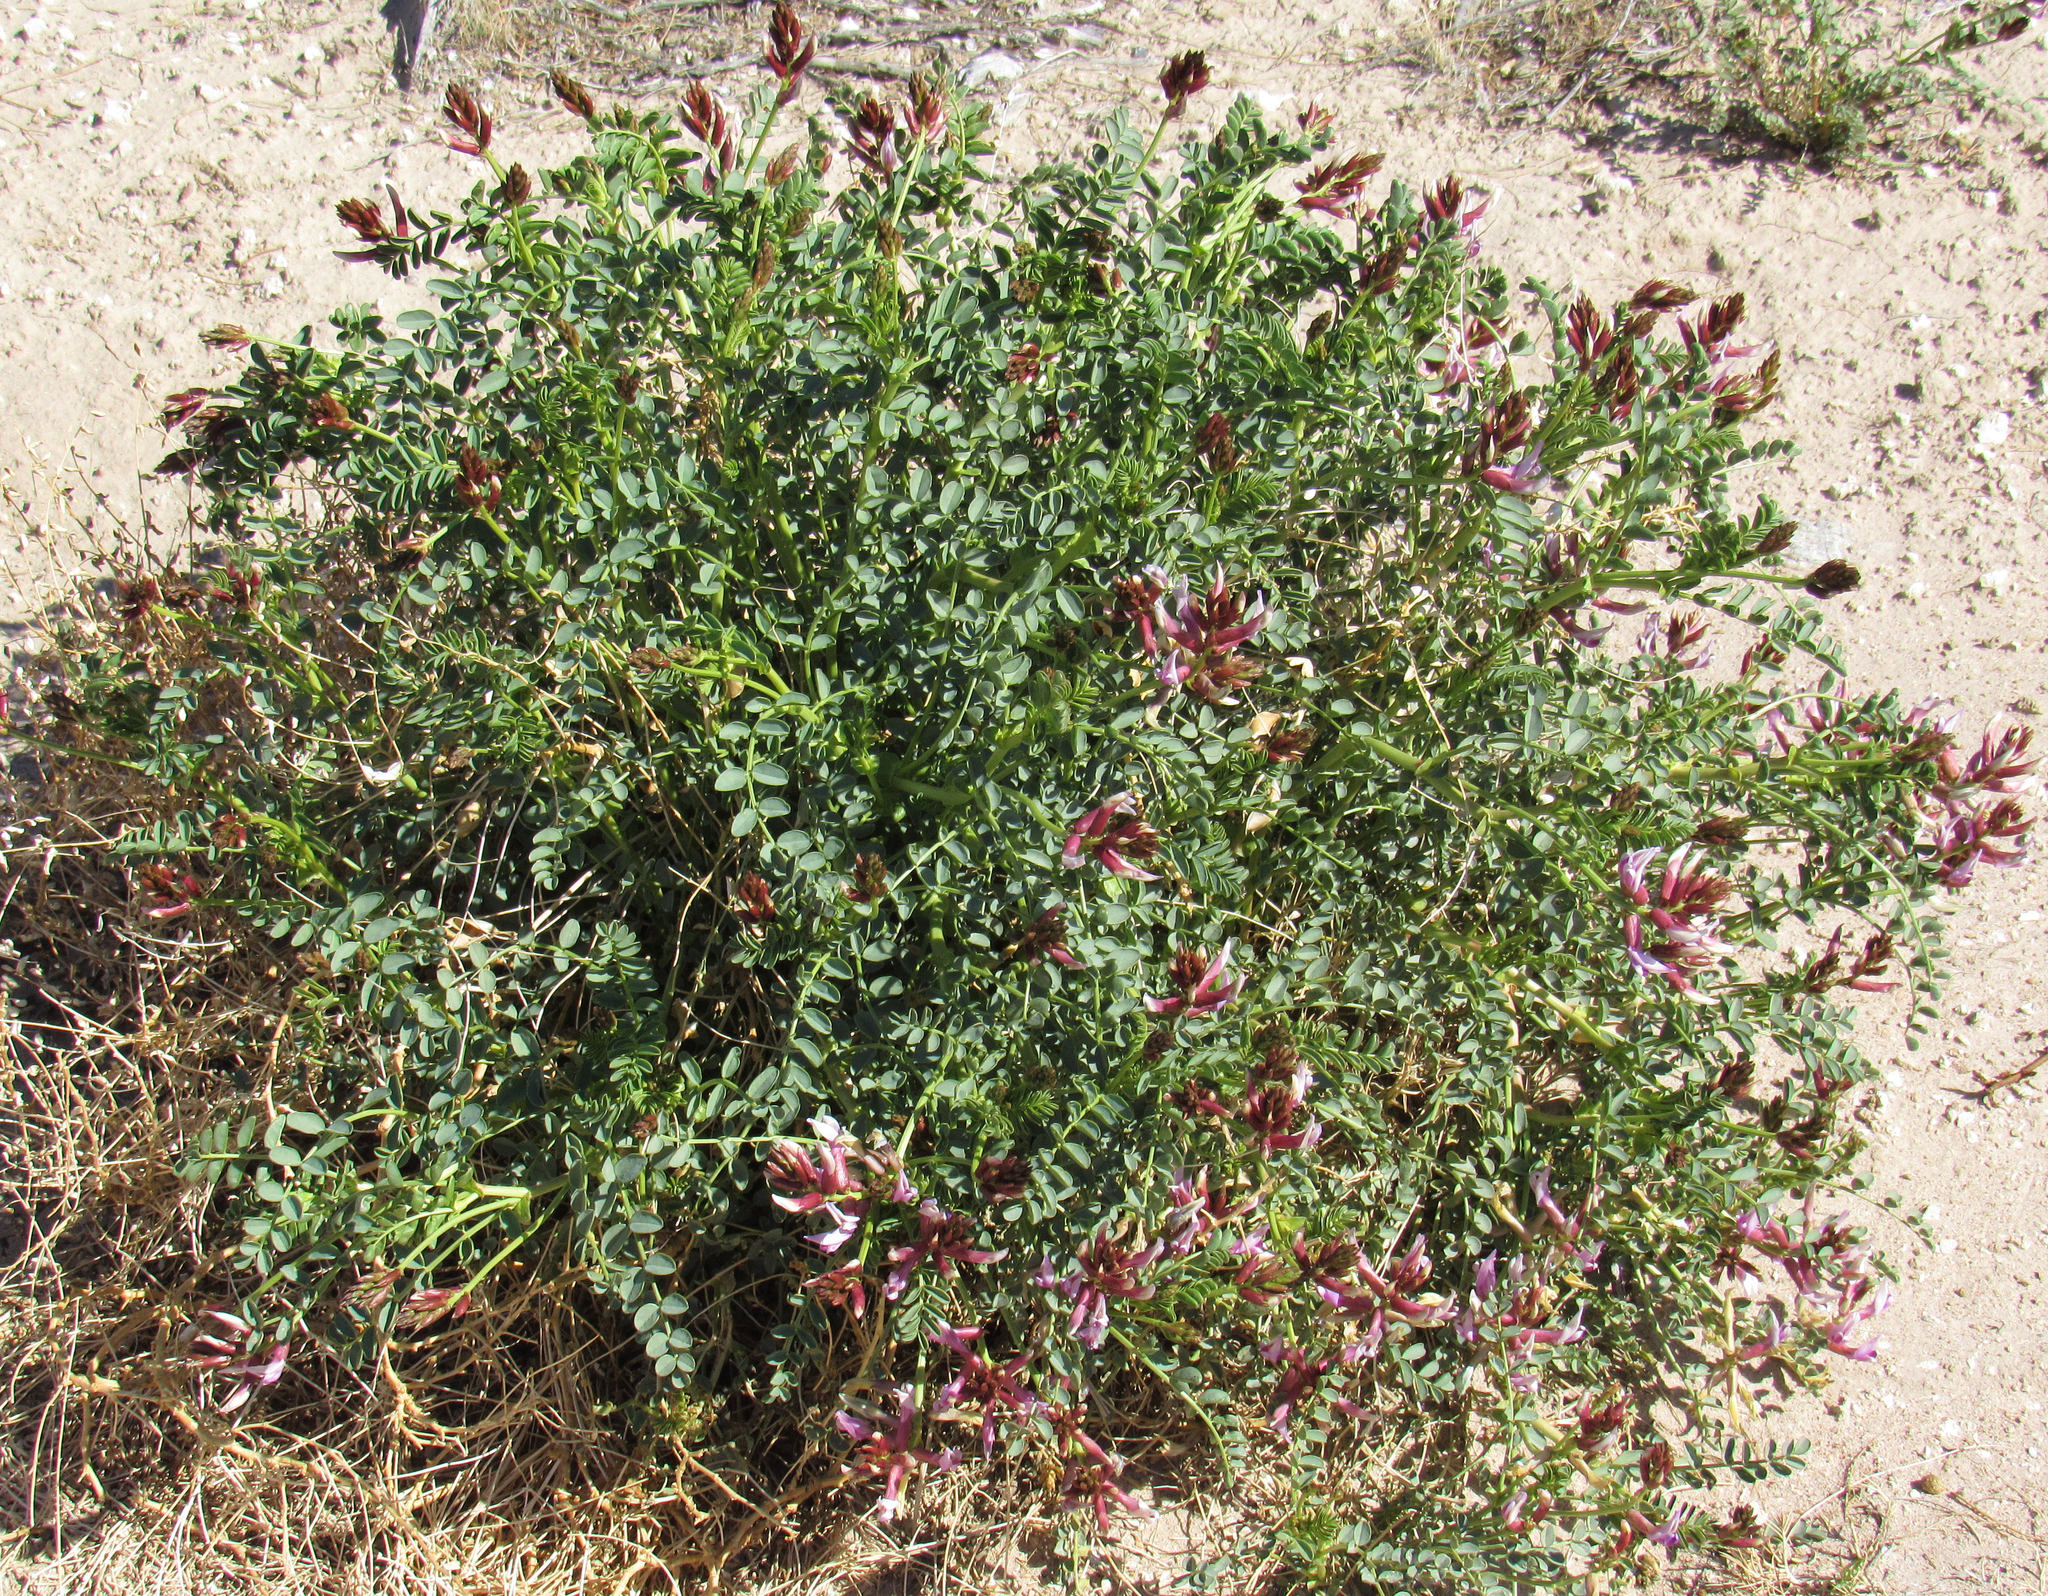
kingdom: Plantae
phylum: Tracheophyta
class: Magnoliopsida
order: Fabales
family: Fabaceae
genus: Astragalus
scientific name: Astragalus preussii
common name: Preuss's milk-vetch
